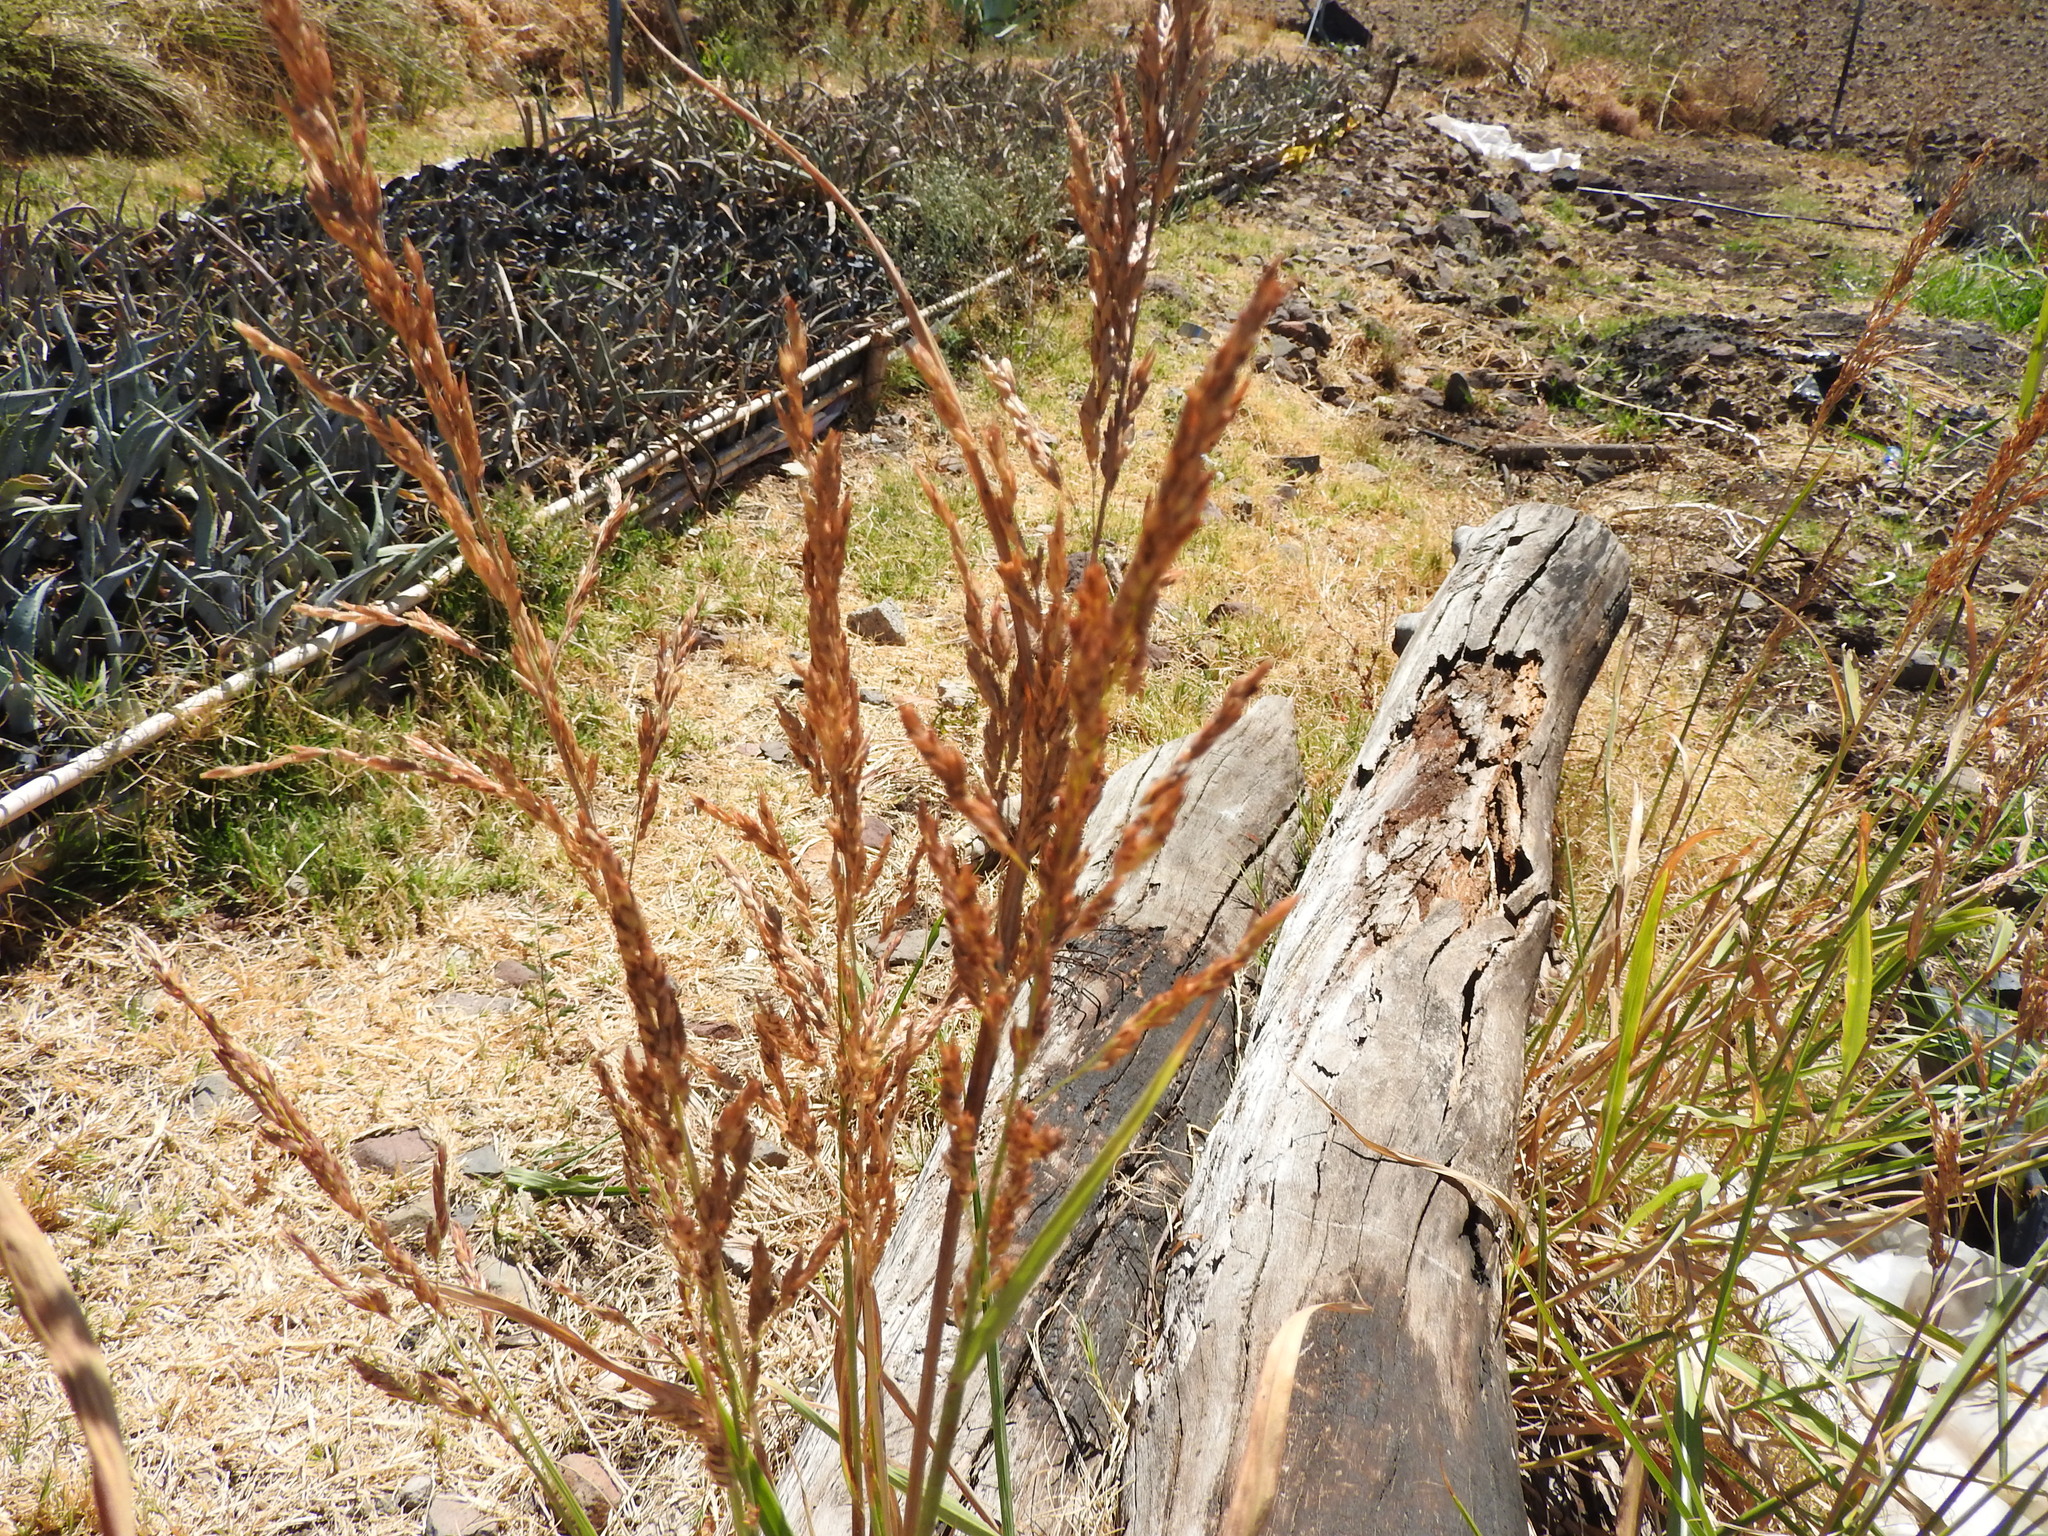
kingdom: Plantae
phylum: Tracheophyta
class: Liliopsida
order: Poales
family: Poaceae
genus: Sorghum
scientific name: Sorghum halepense
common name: Johnson-grass
